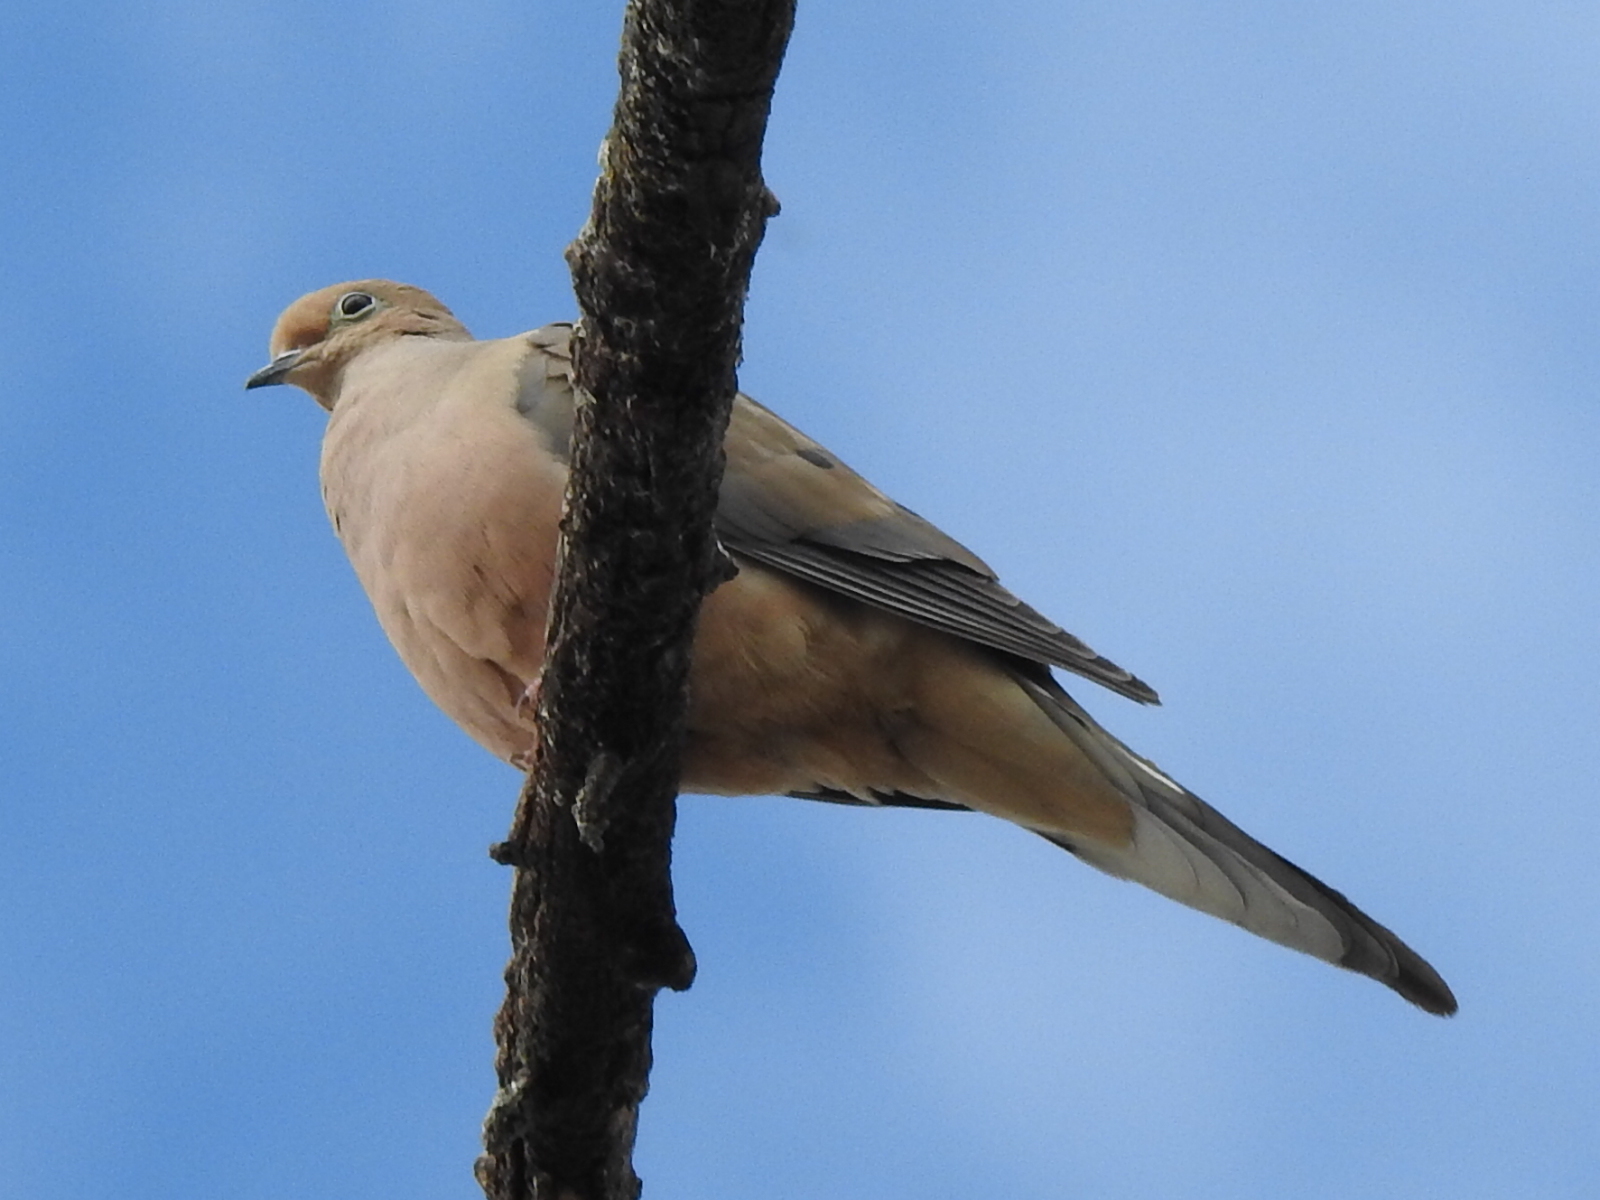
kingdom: Animalia
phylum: Chordata
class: Aves
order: Columbiformes
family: Columbidae
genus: Zenaida
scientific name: Zenaida macroura
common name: Mourning dove
